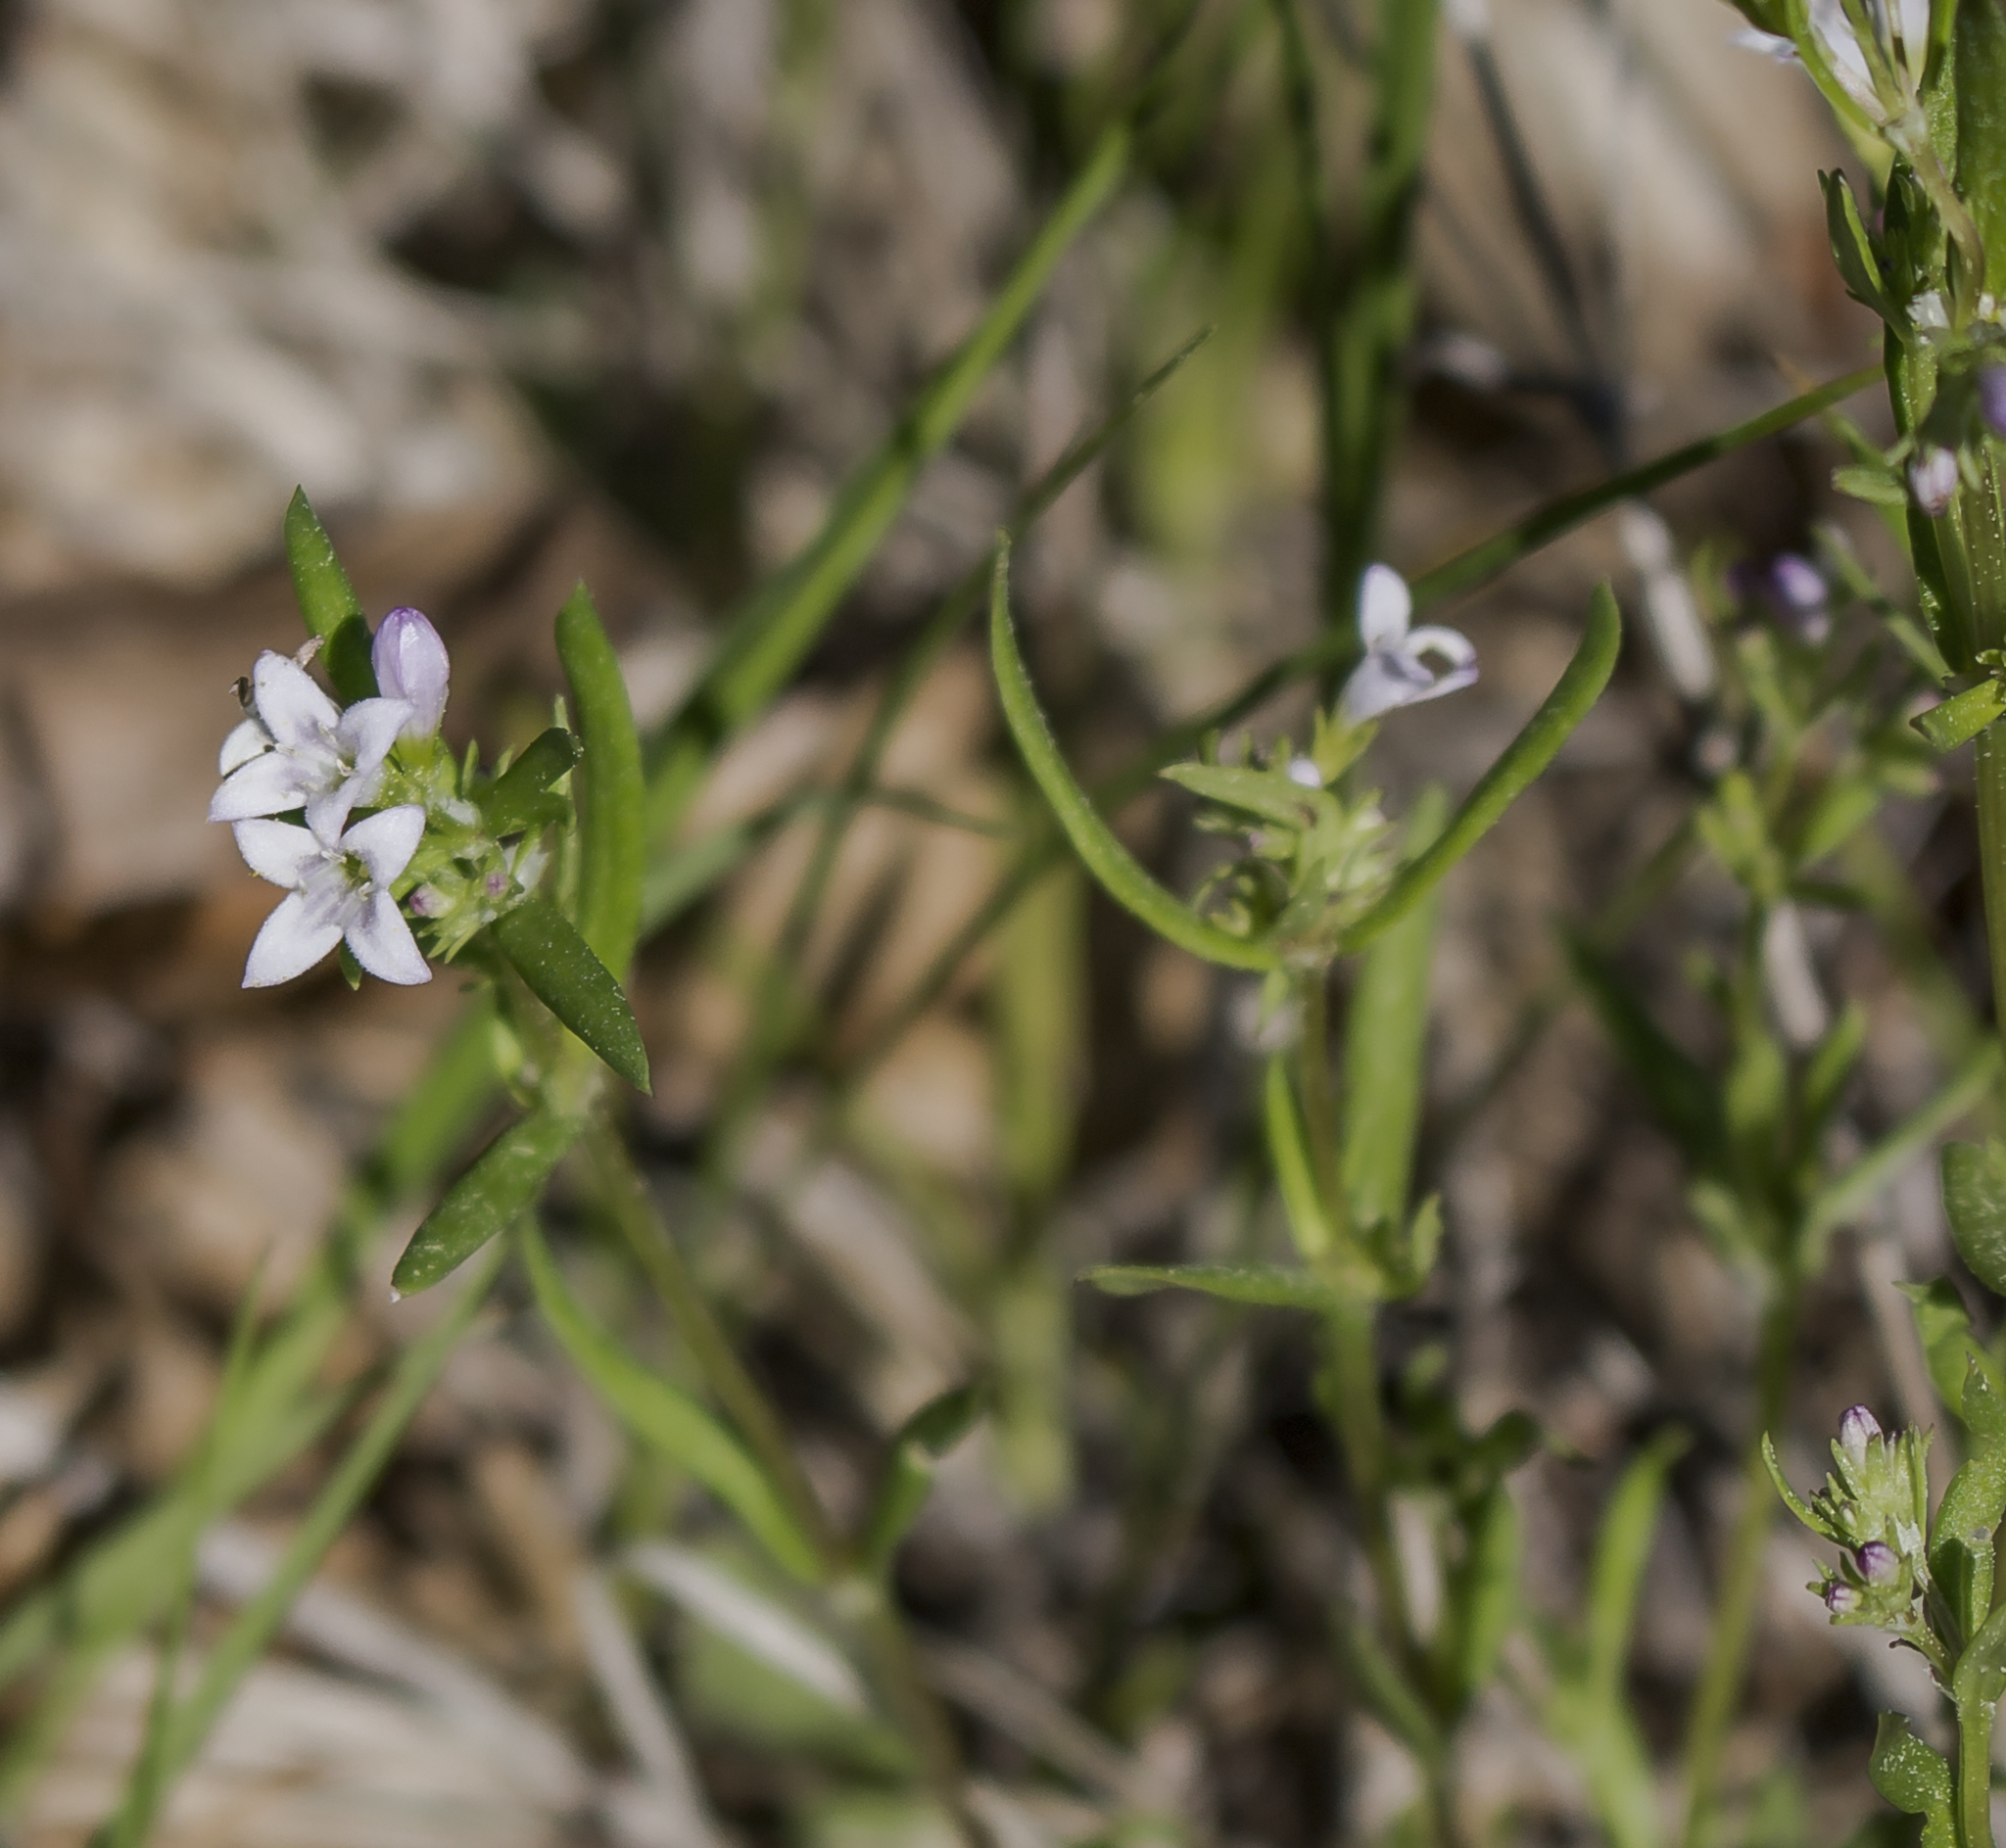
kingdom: Plantae
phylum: Tracheophyta
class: Magnoliopsida
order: Gentianales
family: Rubiaceae
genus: Houstonia
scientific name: Houstonia longifolia
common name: Long-leaved bluets
